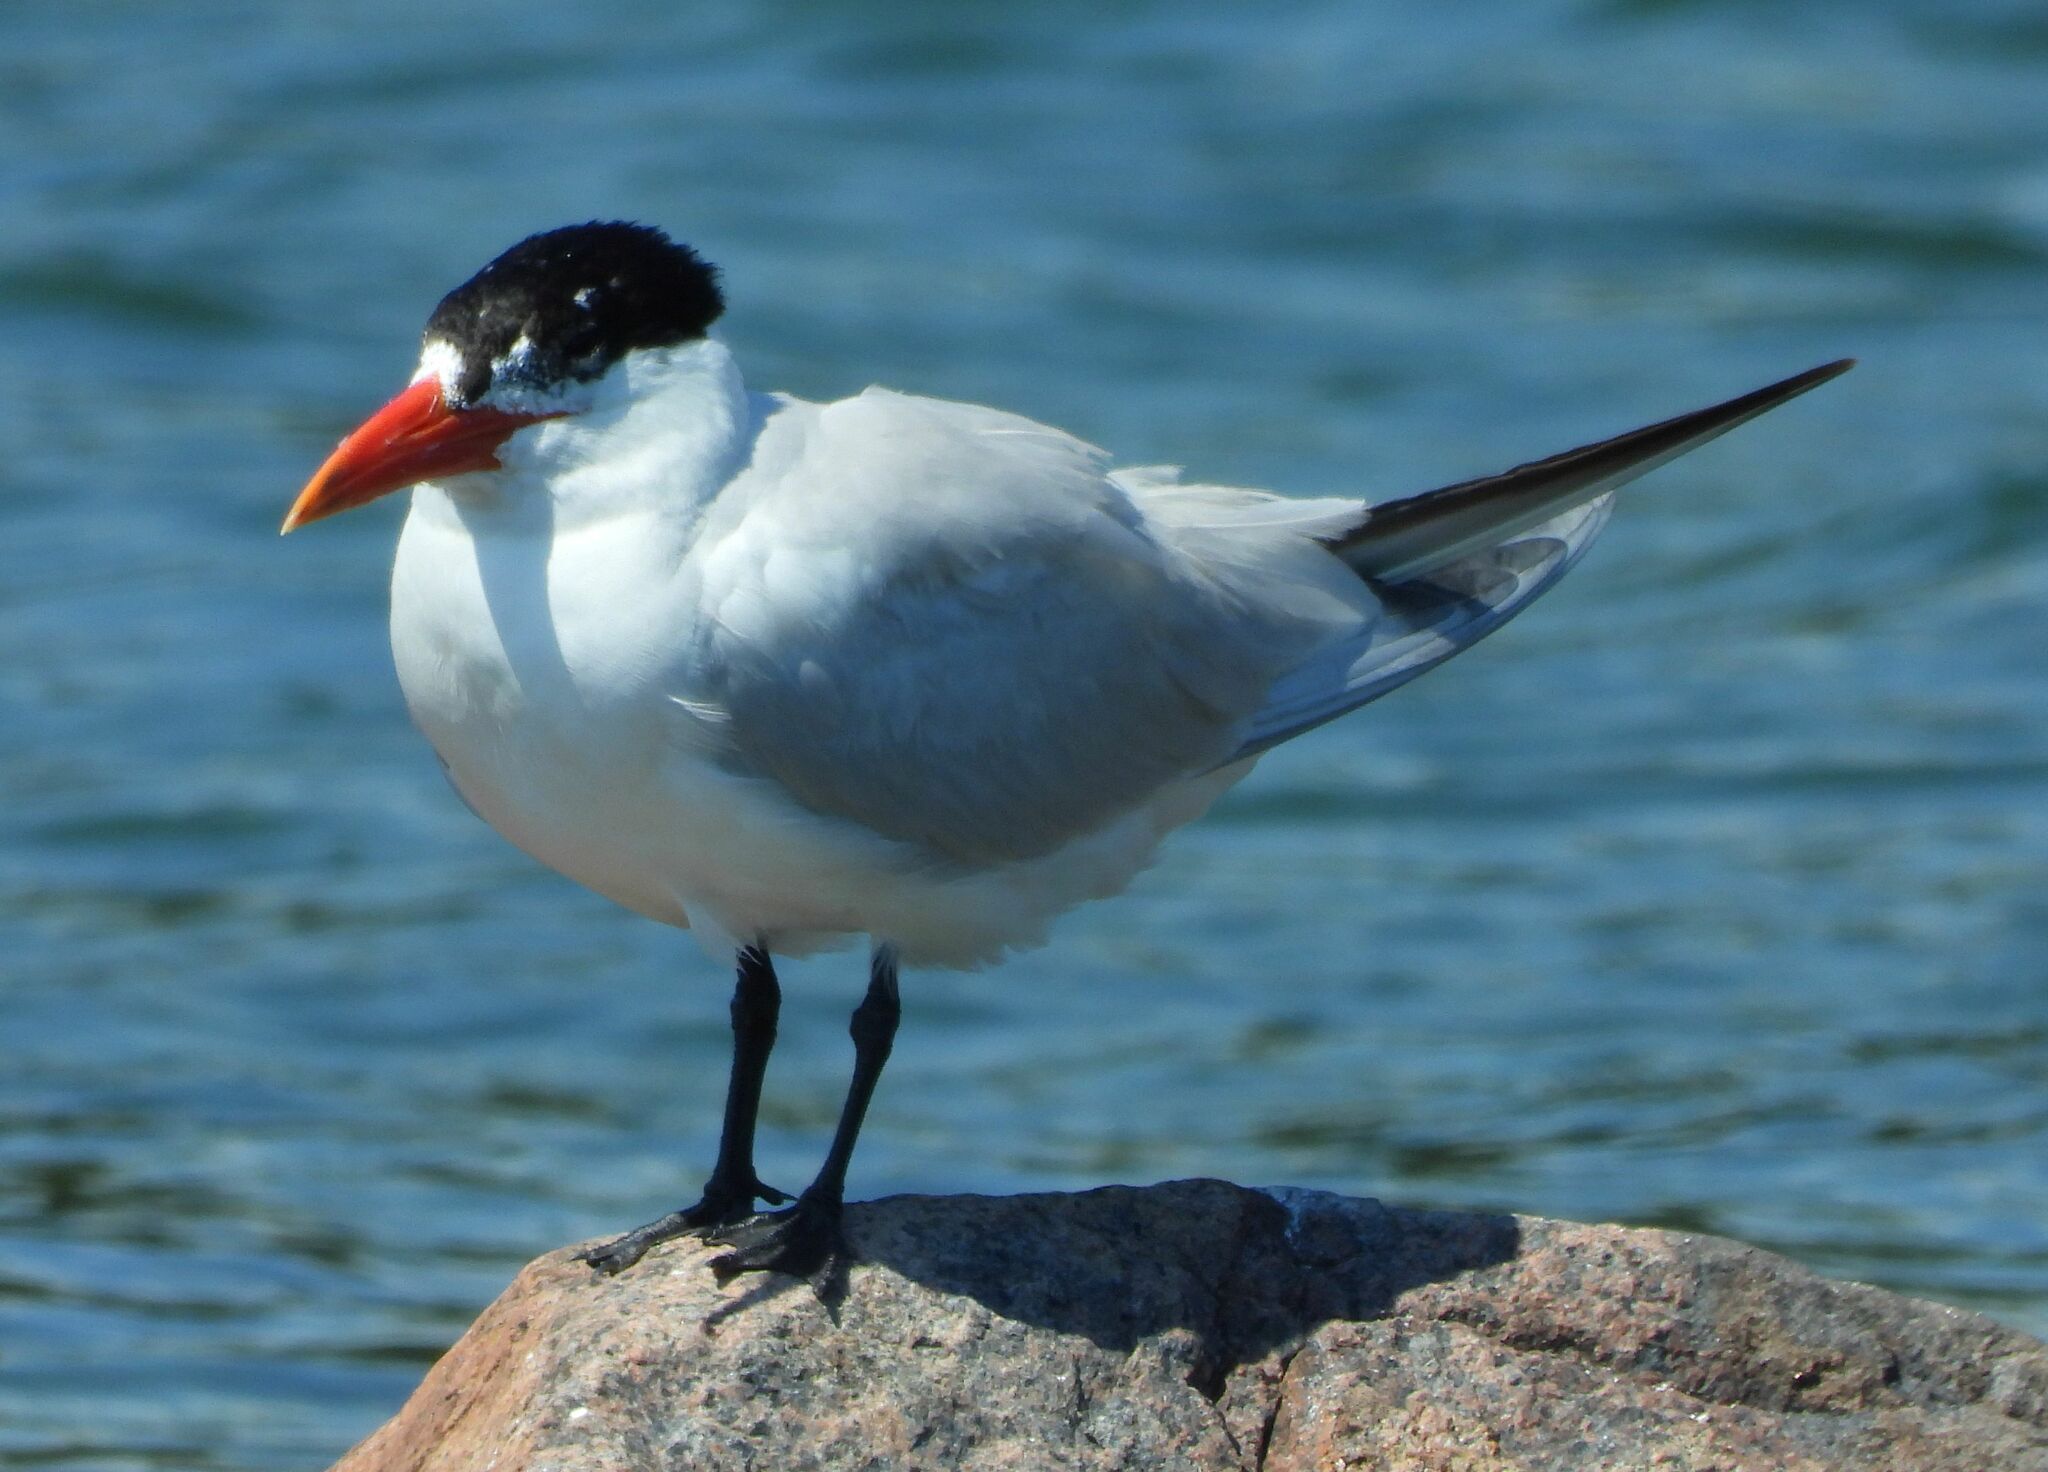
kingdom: Animalia
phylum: Chordata
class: Aves
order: Charadriiformes
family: Laridae
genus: Hydroprogne
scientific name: Hydroprogne caspia
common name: Caspian tern
